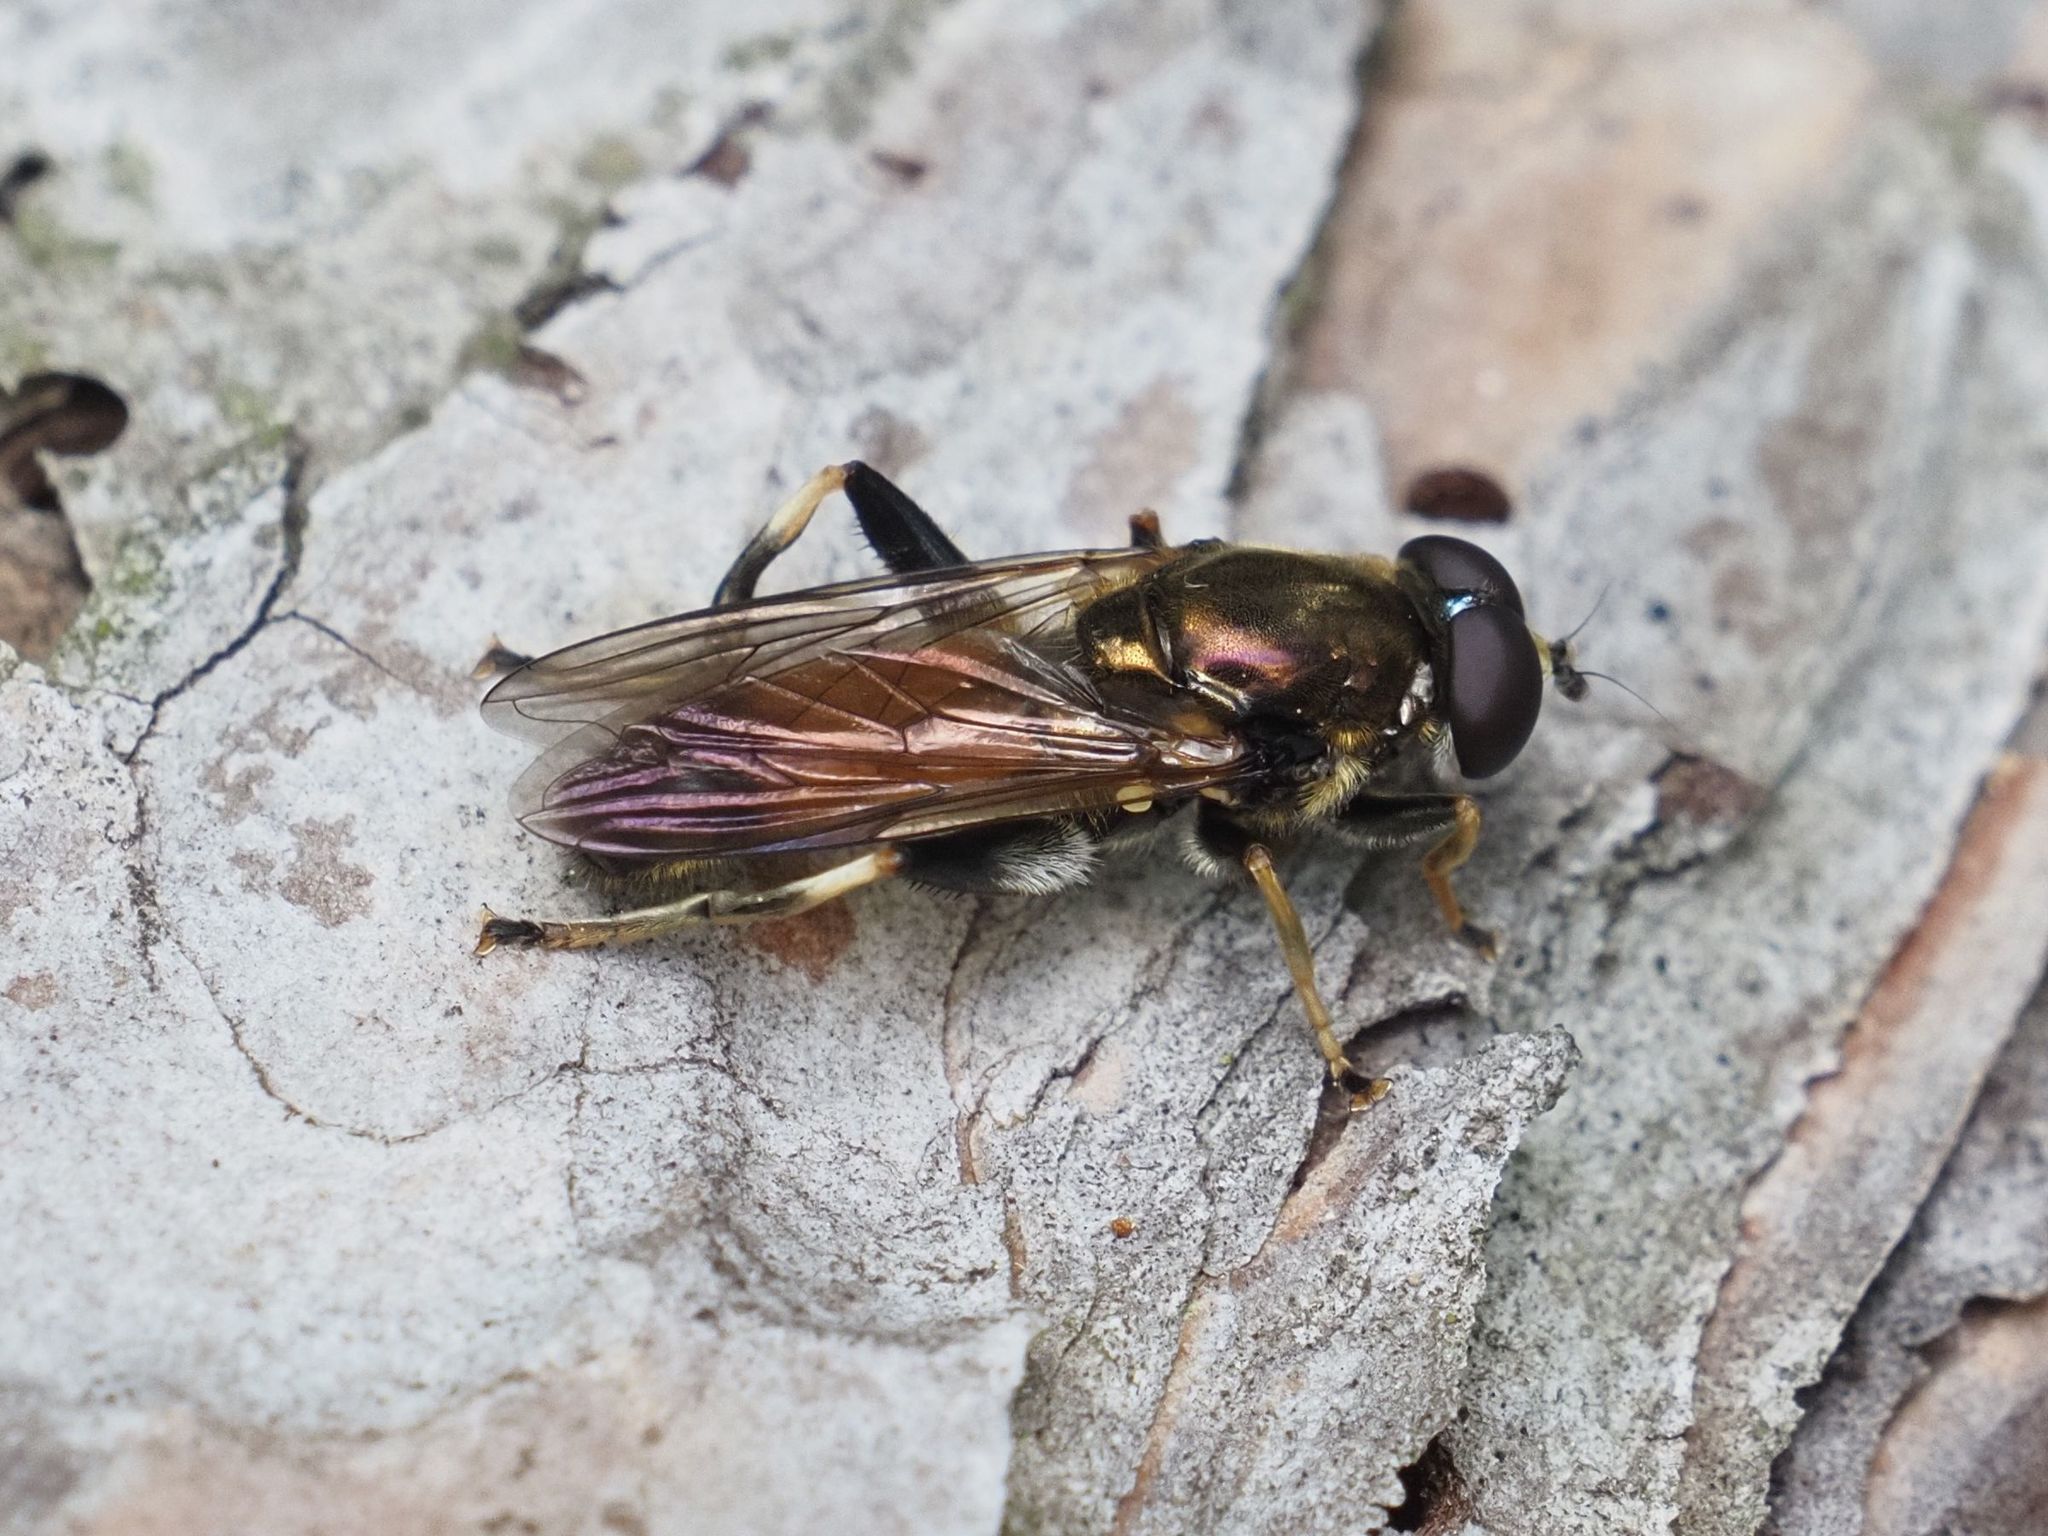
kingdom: Animalia
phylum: Arthropoda
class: Insecta
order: Diptera
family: Syrphidae
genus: Xylota
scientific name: Xylota segnis
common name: Brown-toed forest fly
